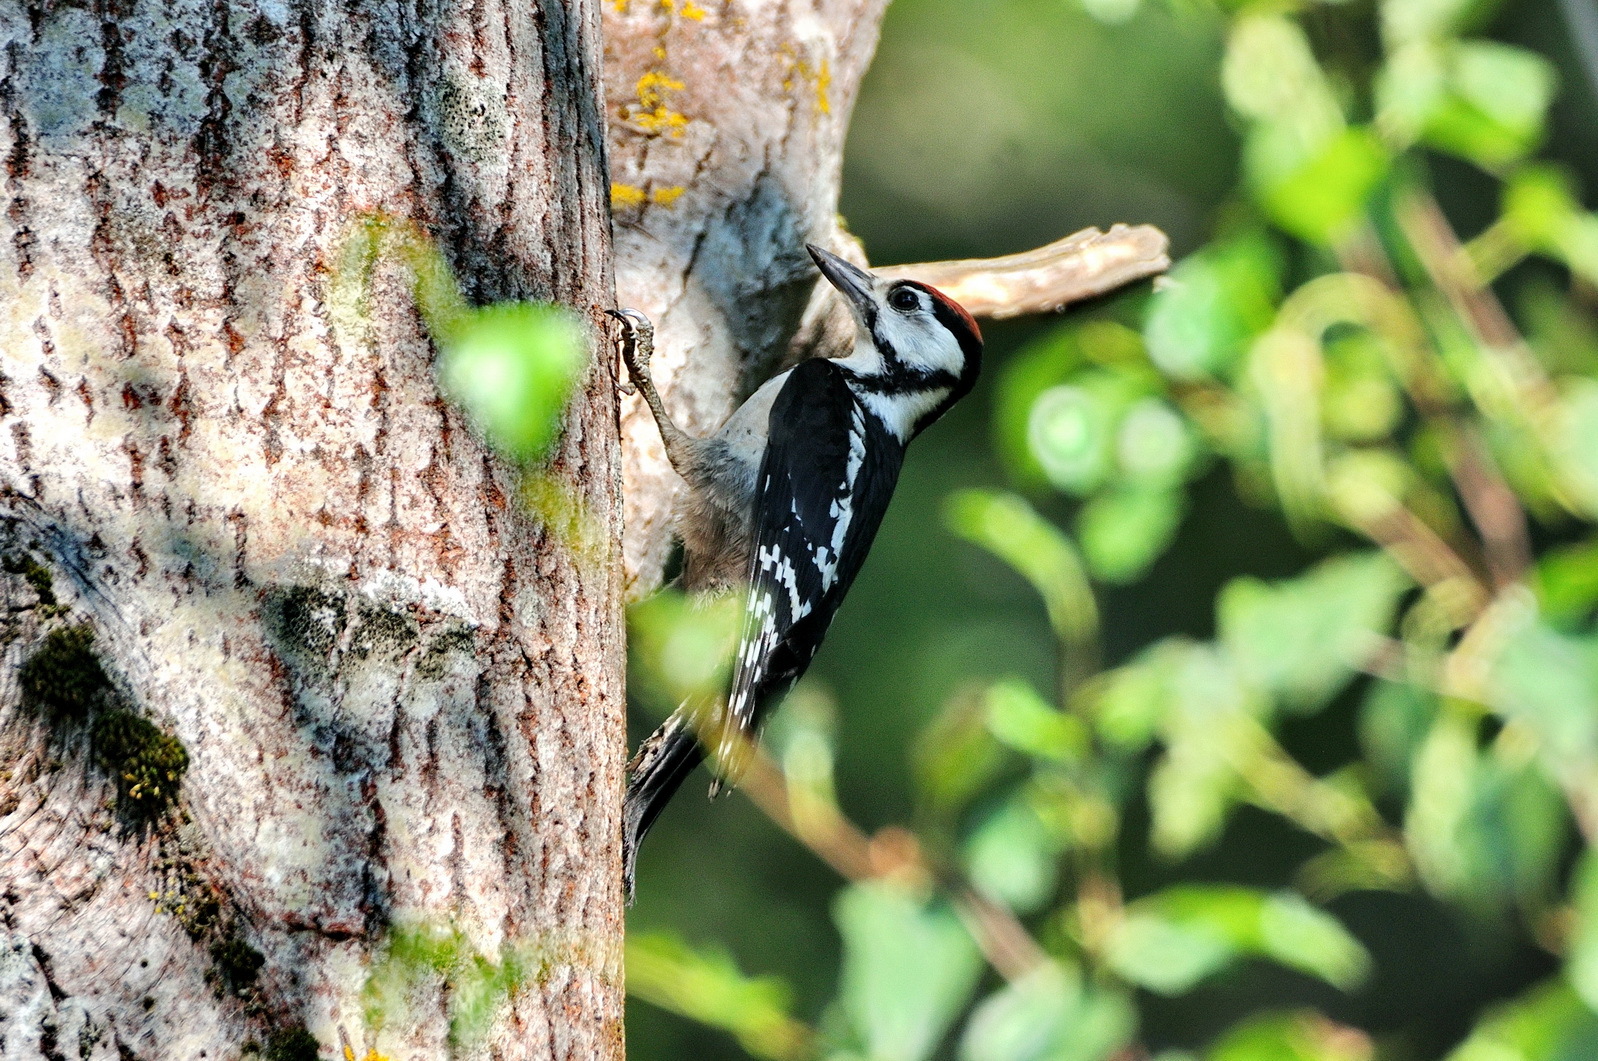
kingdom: Animalia
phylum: Chordata
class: Aves
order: Piciformes
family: Picidae
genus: Dendrocopos
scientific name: Dendrocopos major
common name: Great spotted woodpecker
